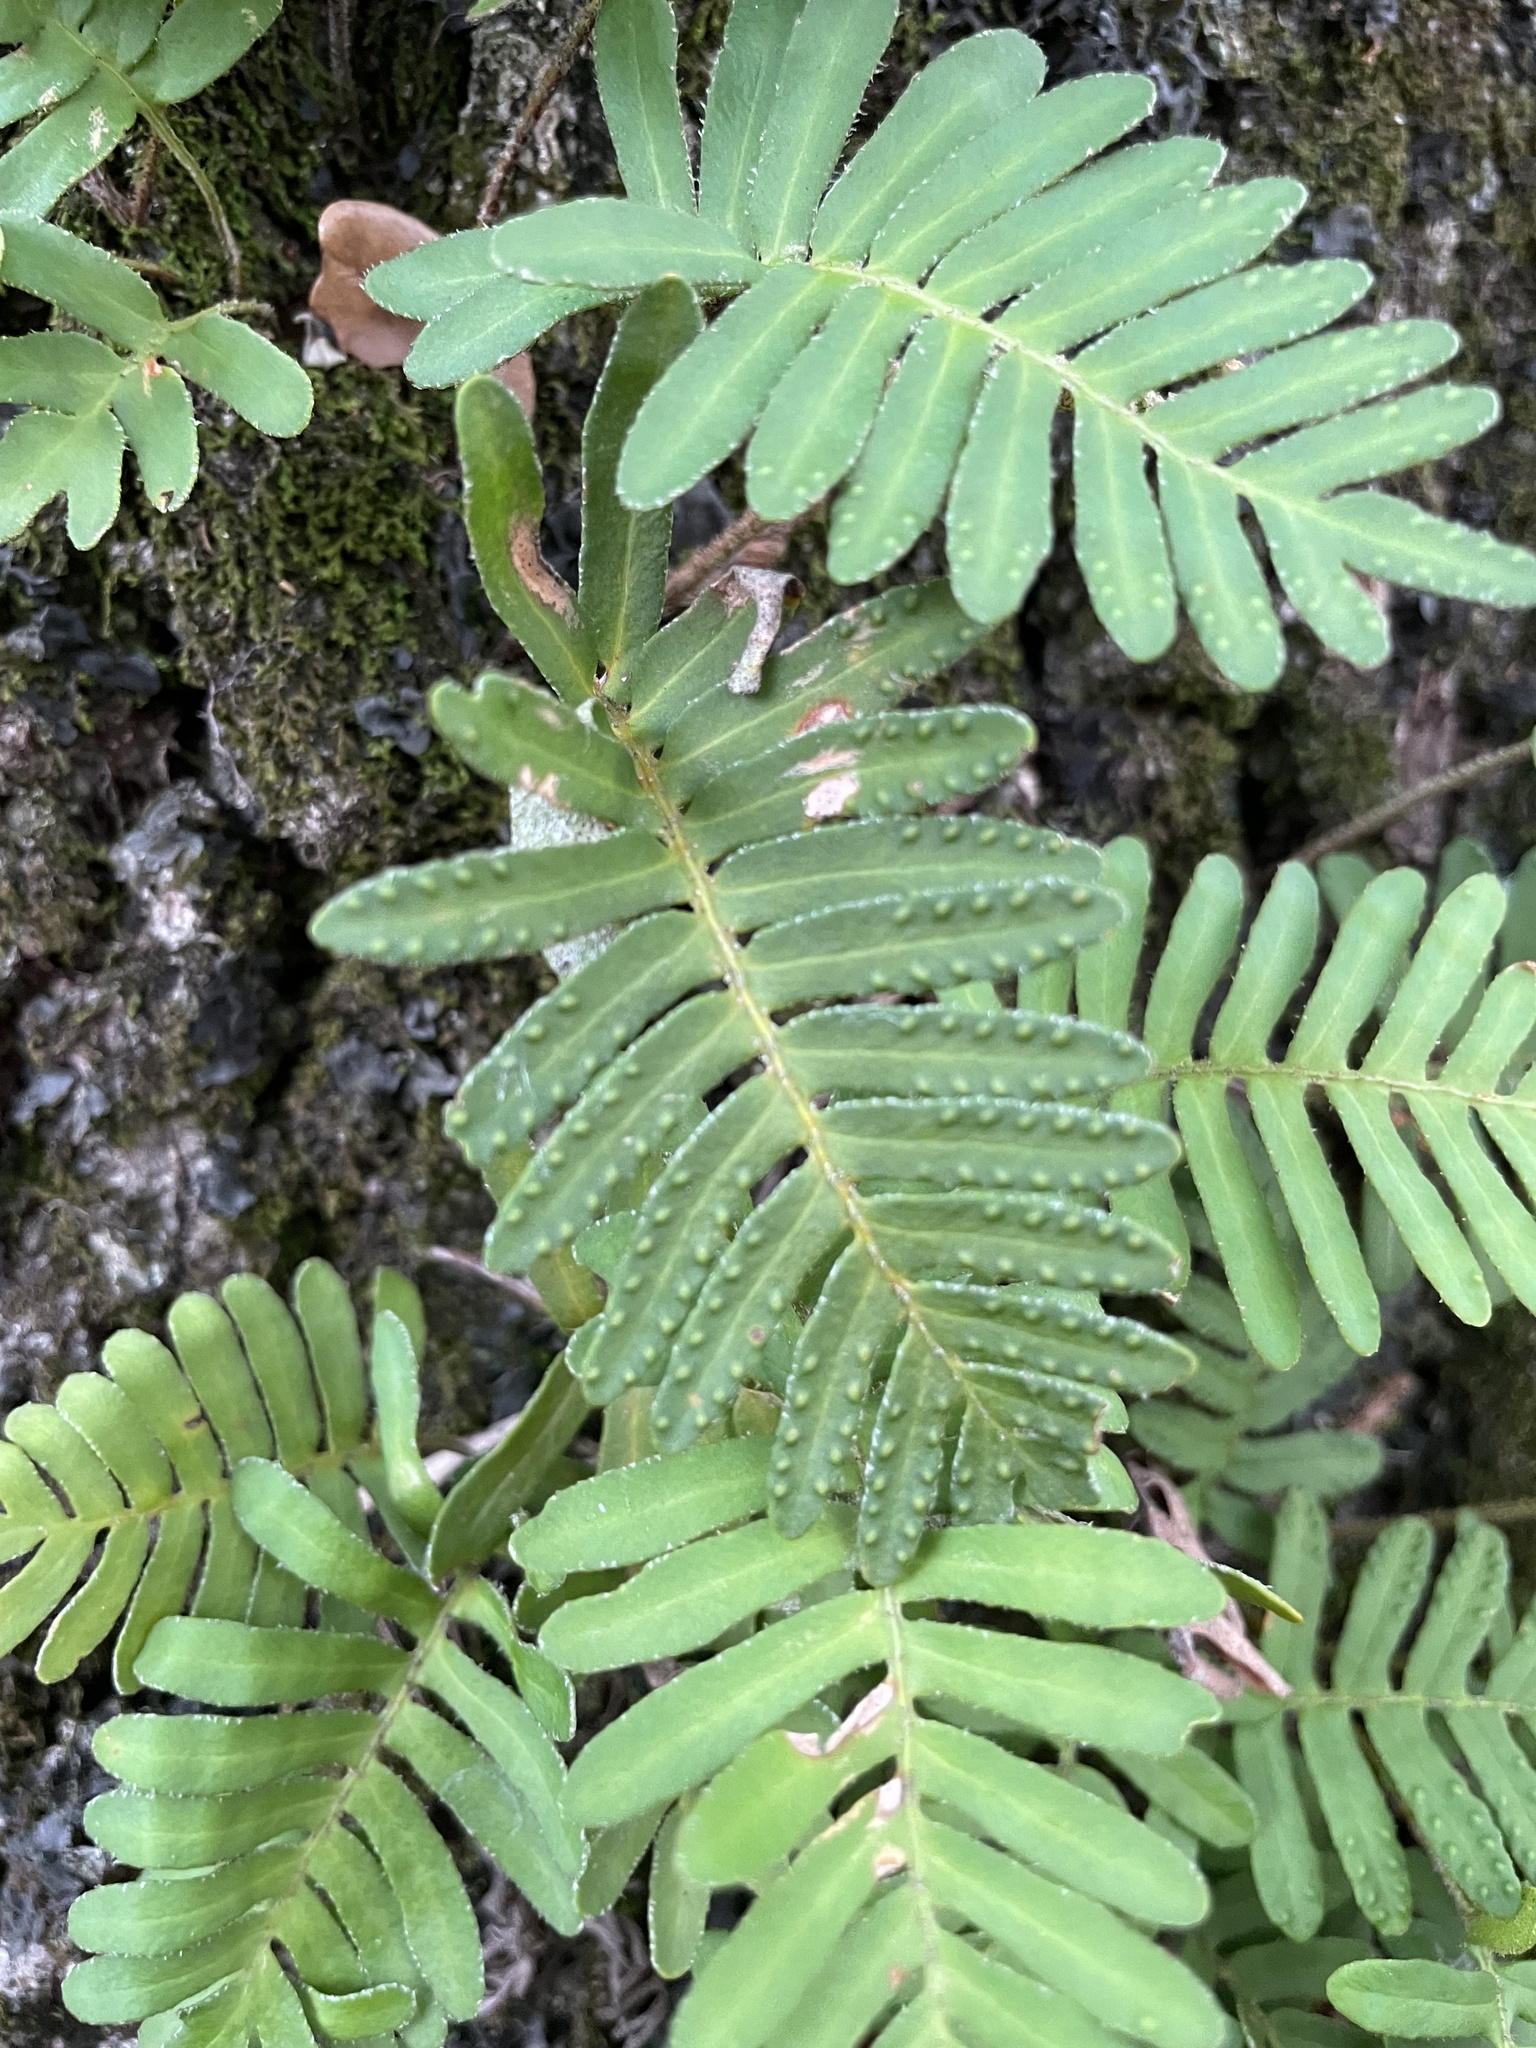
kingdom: Plantae
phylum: Tracheophyta
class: Polypodiopsida
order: Polypodiales
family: Polypodiaceae
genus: Pleopeltis
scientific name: Pleopeltis michauxiana
